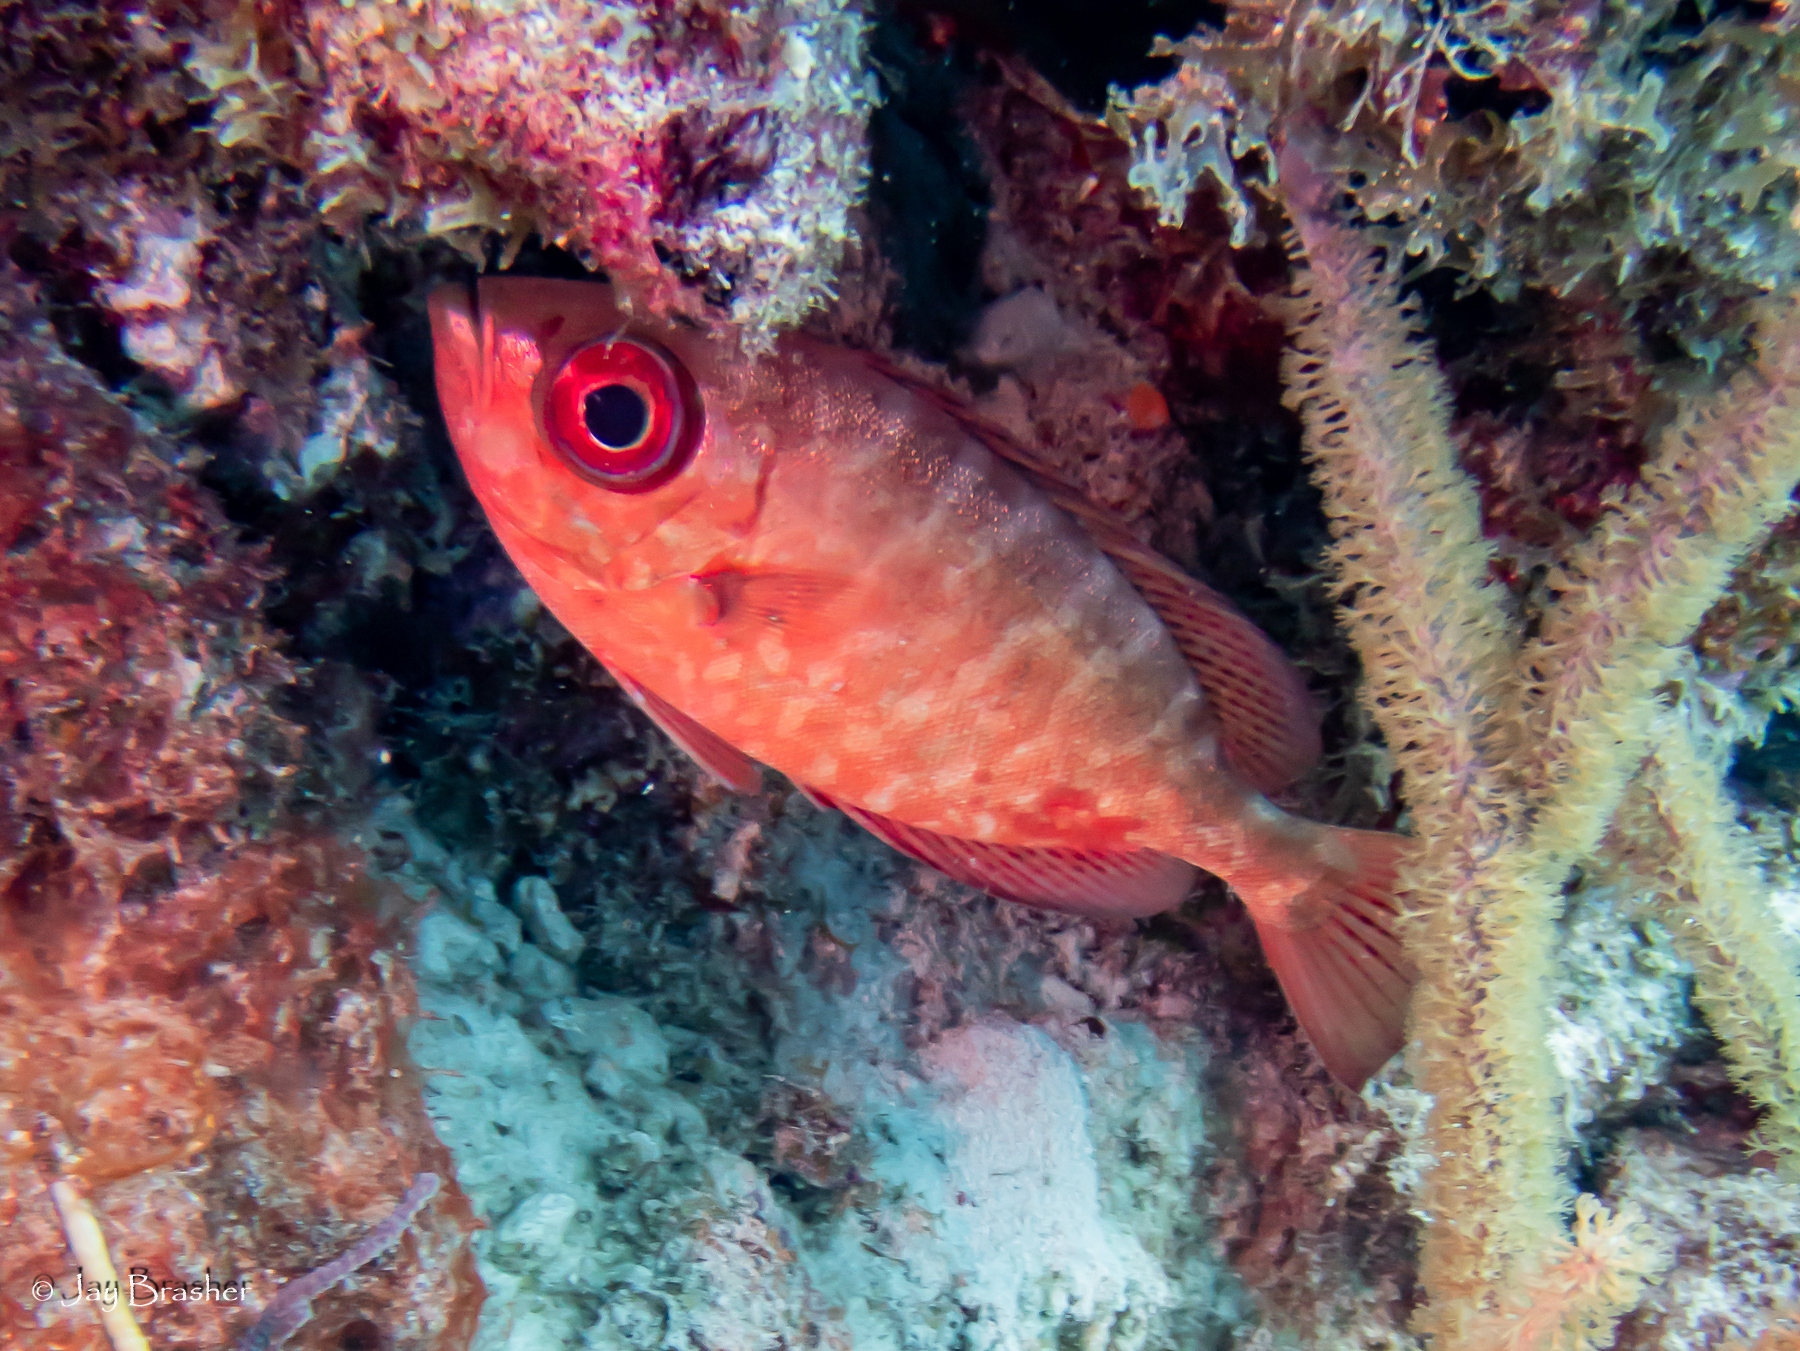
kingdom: Animalia
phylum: Chordata
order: Perciformes
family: Priacanthidae
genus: Heteropriacanthus
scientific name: Heteropriacanthus cruentatus
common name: Glasseye
